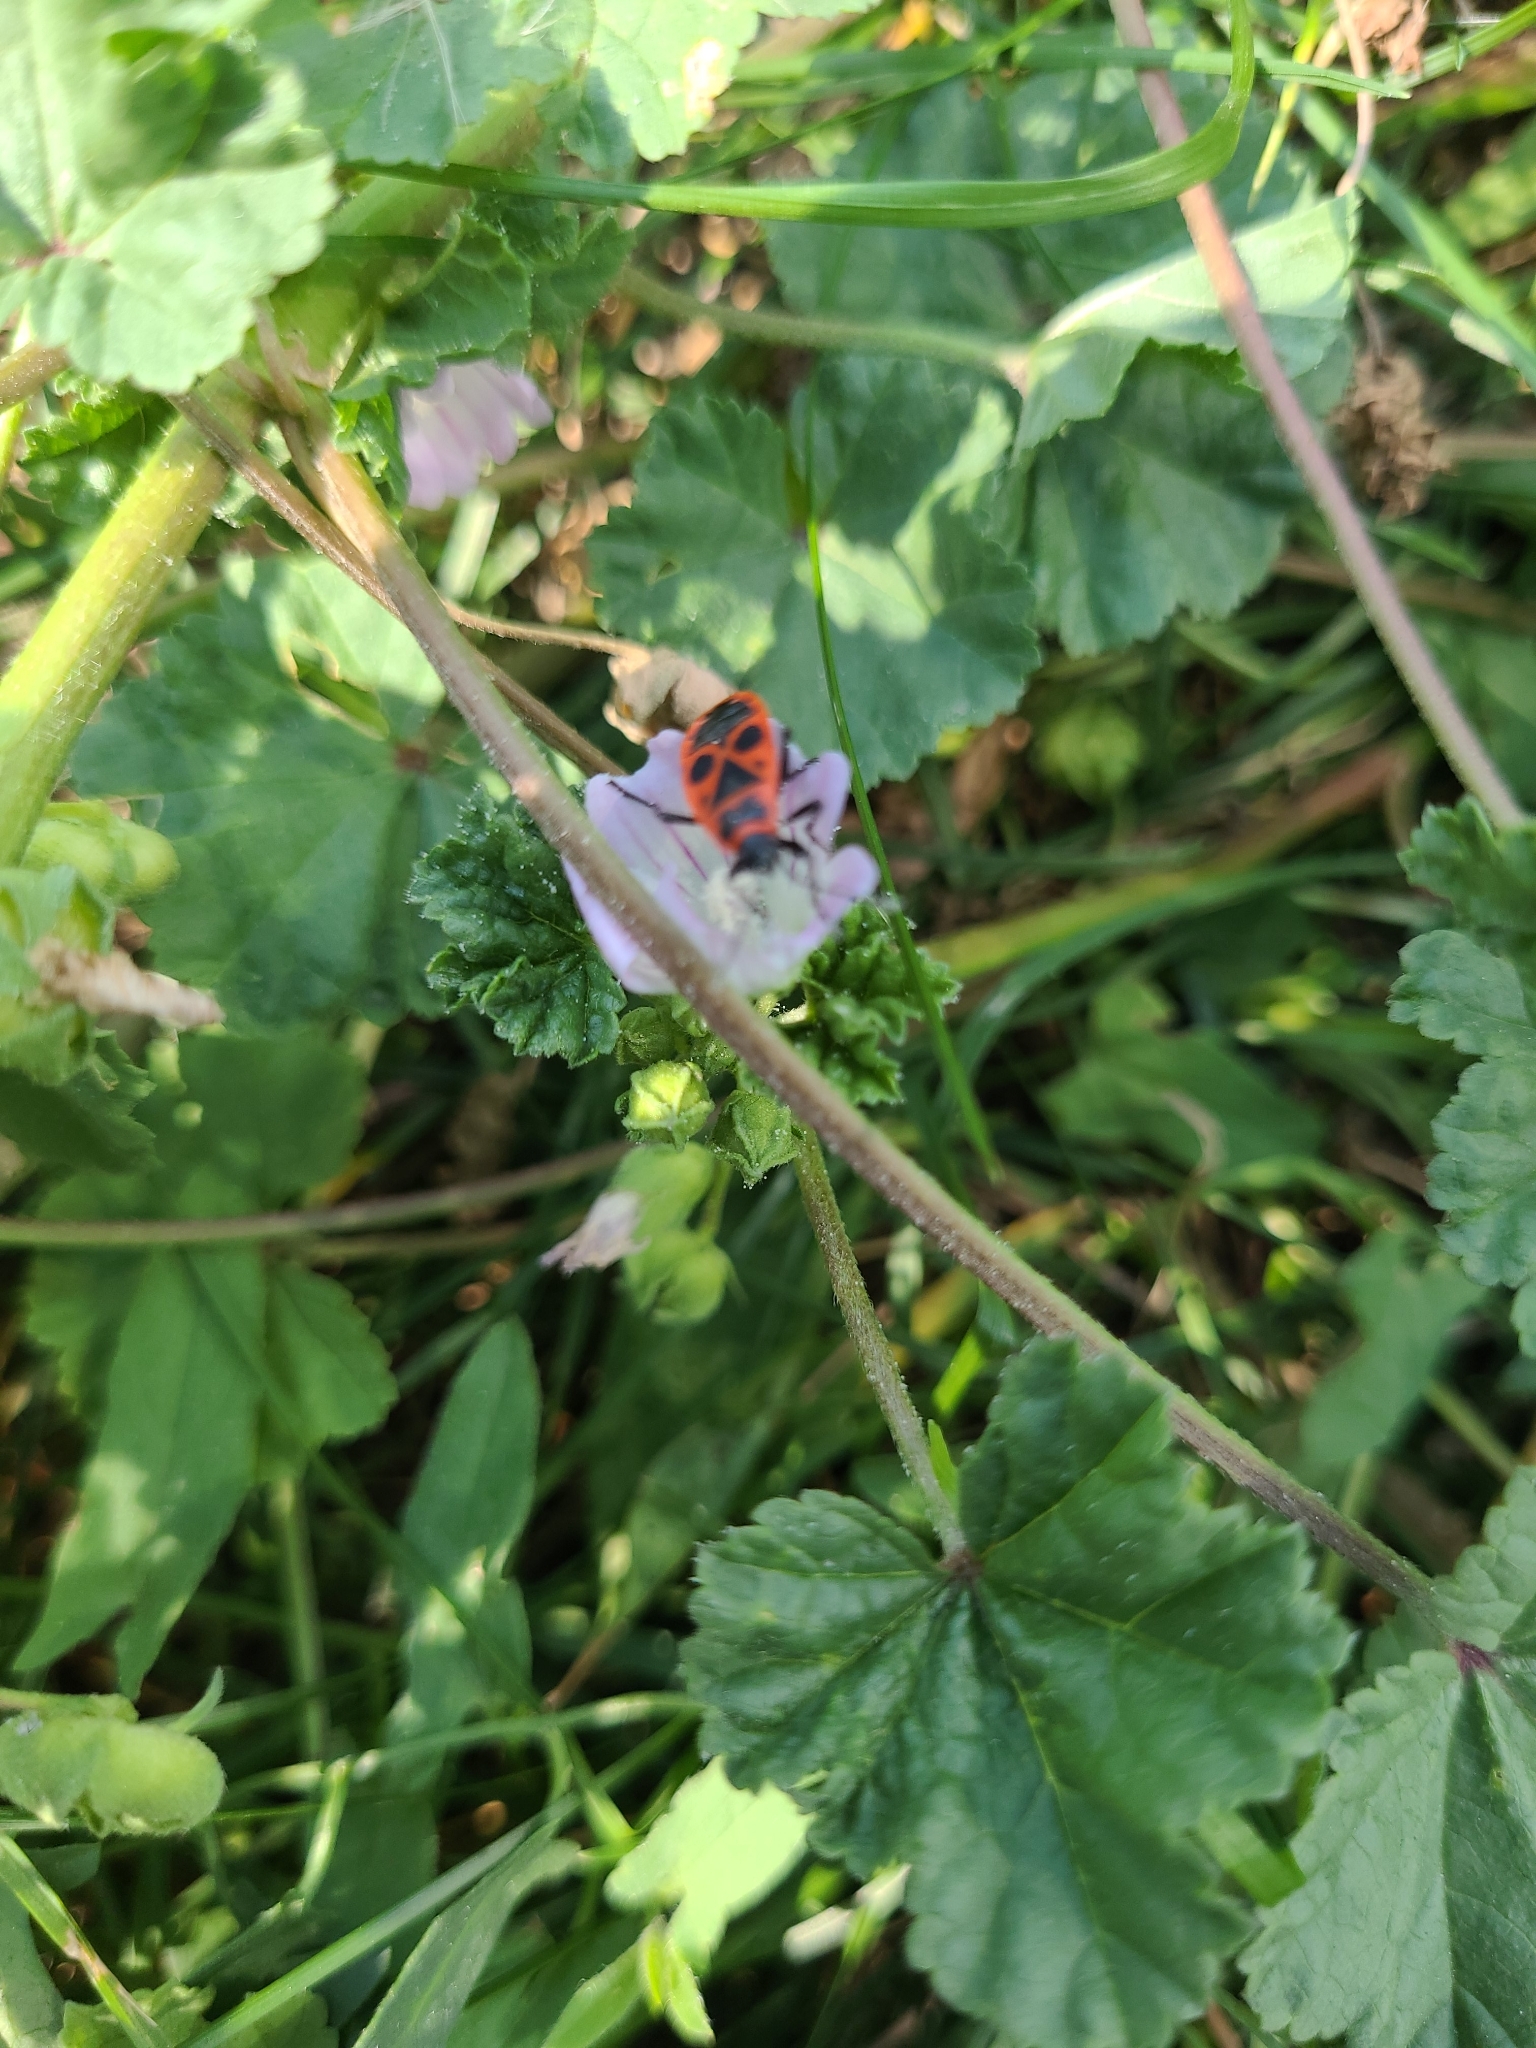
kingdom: Animalia
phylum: Arthropoda
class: Insecta
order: Hemiptera
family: Pyrrhocoridae
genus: Pyrrhocoris
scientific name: Pyrrhocoris apterus
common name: Firebug
